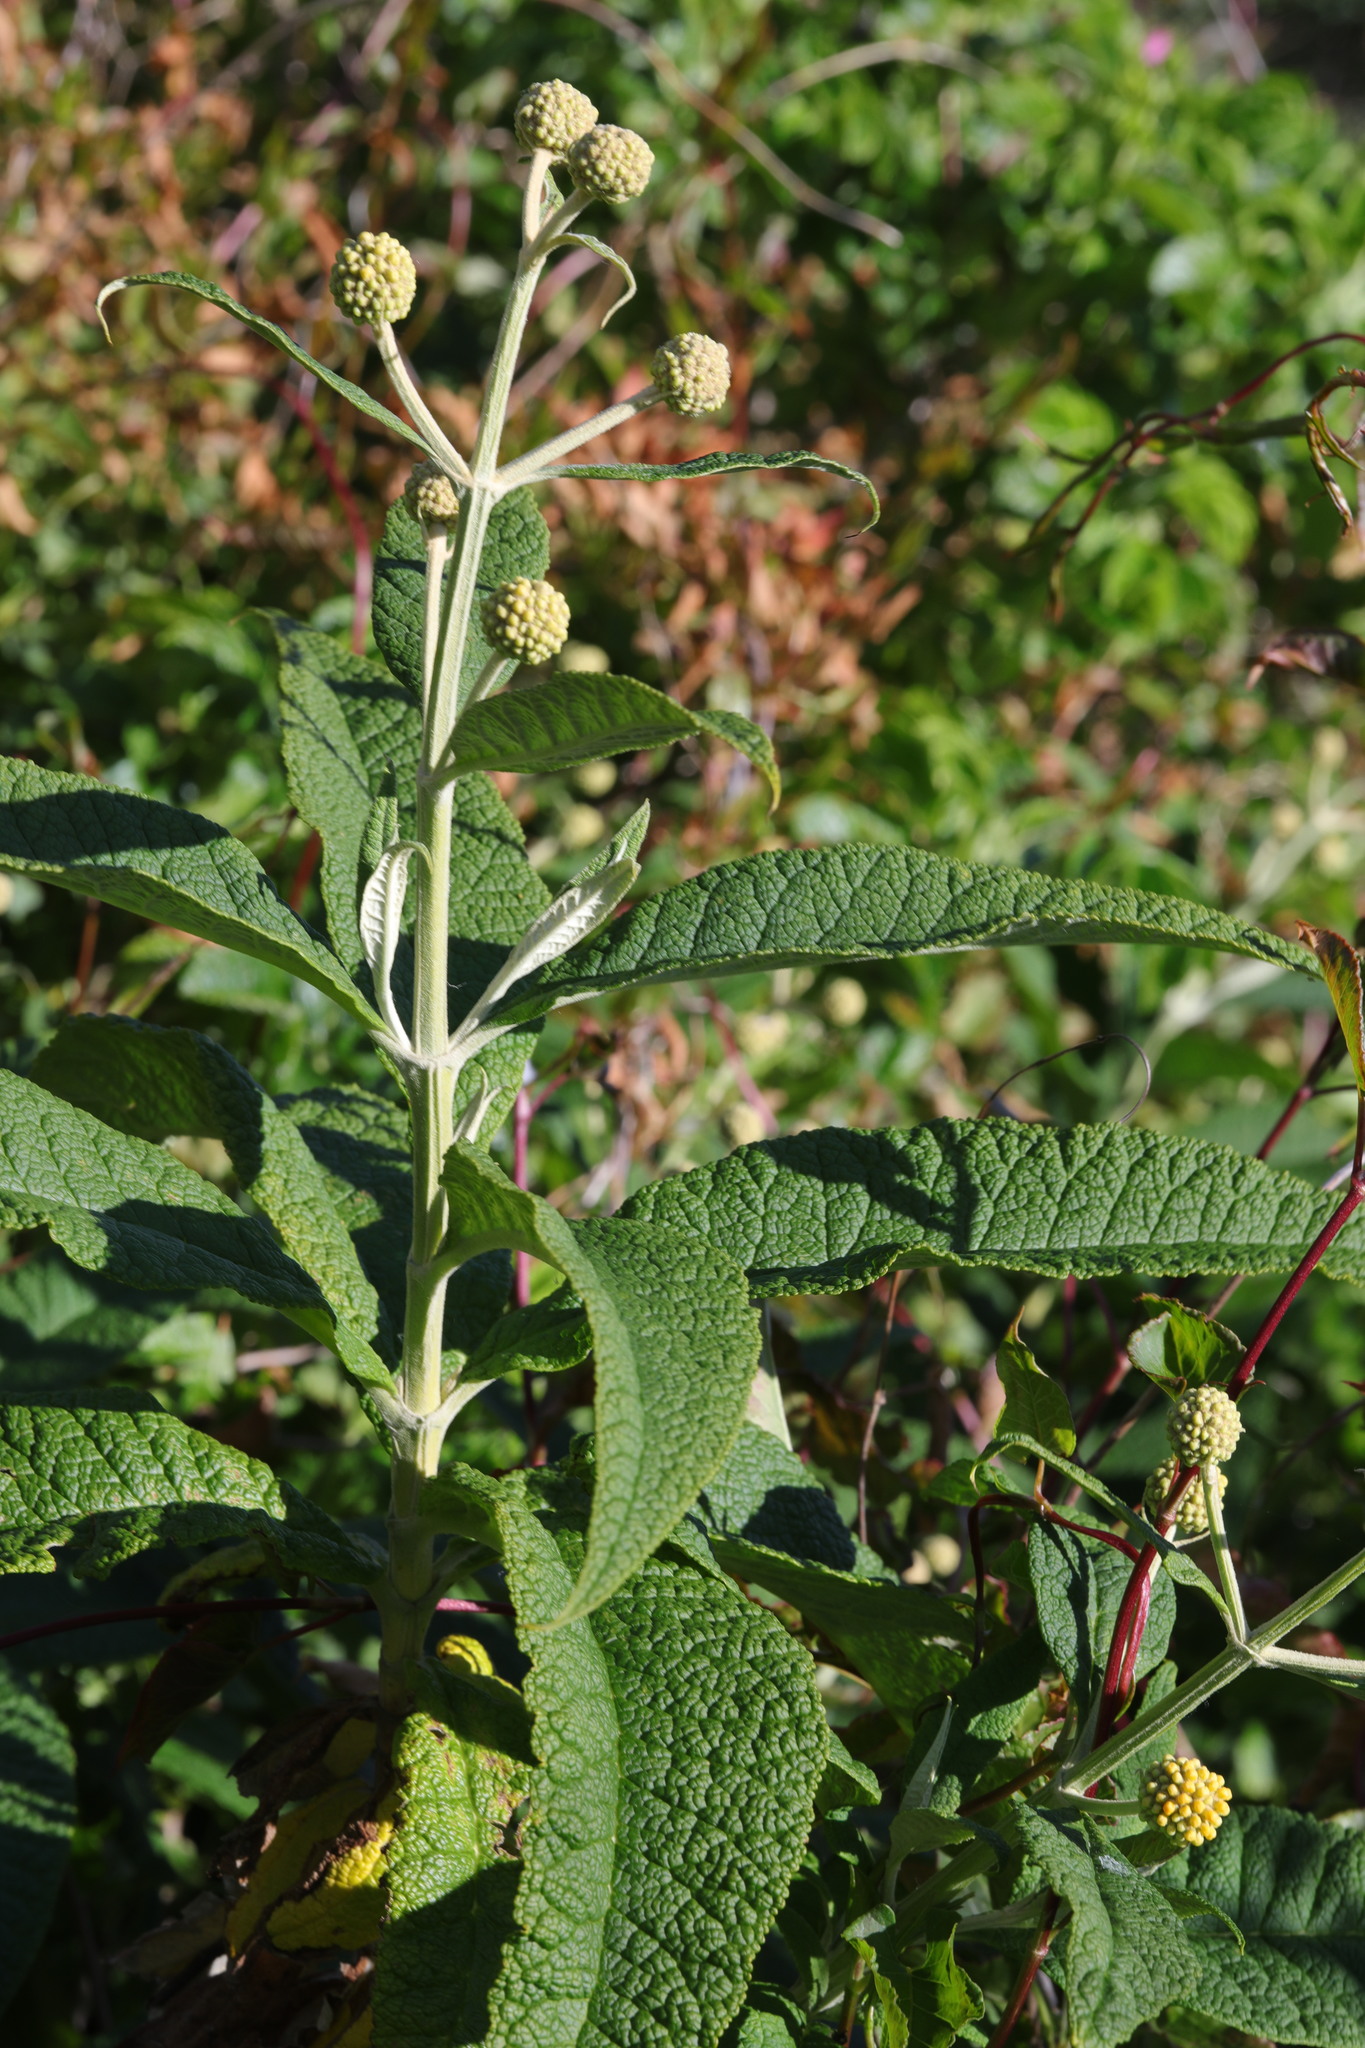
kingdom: Plantae
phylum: Tracheophyta
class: Magnoliopsida
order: Lamiales
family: Scrophulariaceae
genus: Buddleja
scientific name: Buddleja globosa
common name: Orange-ball-tree
